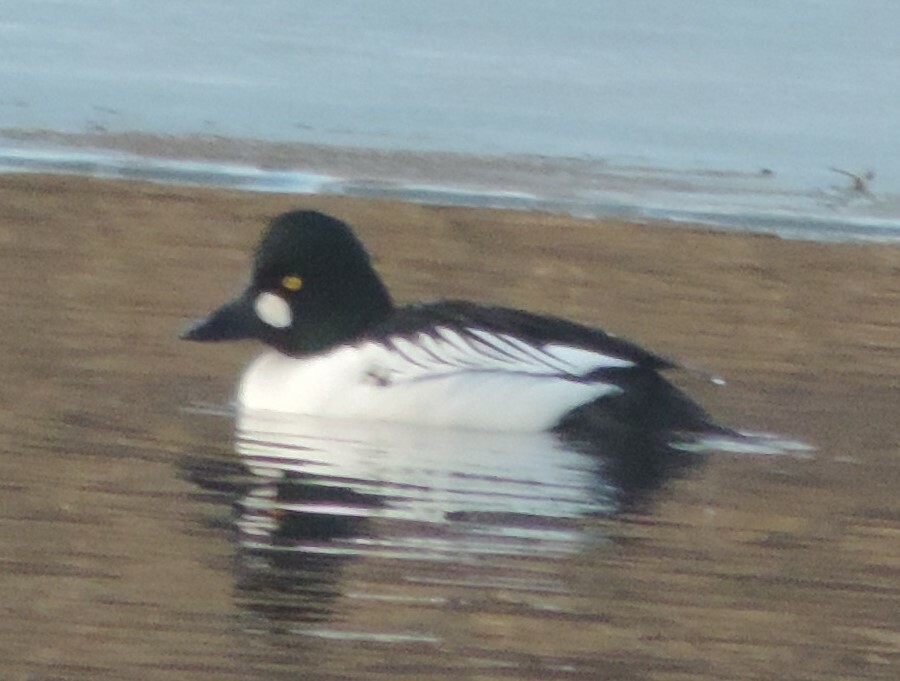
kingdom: Animalia
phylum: Chordata
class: Aves
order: Anseriformes
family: Anatidae
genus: Bucephala
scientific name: Bucephala clangula
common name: Common goldeneye
